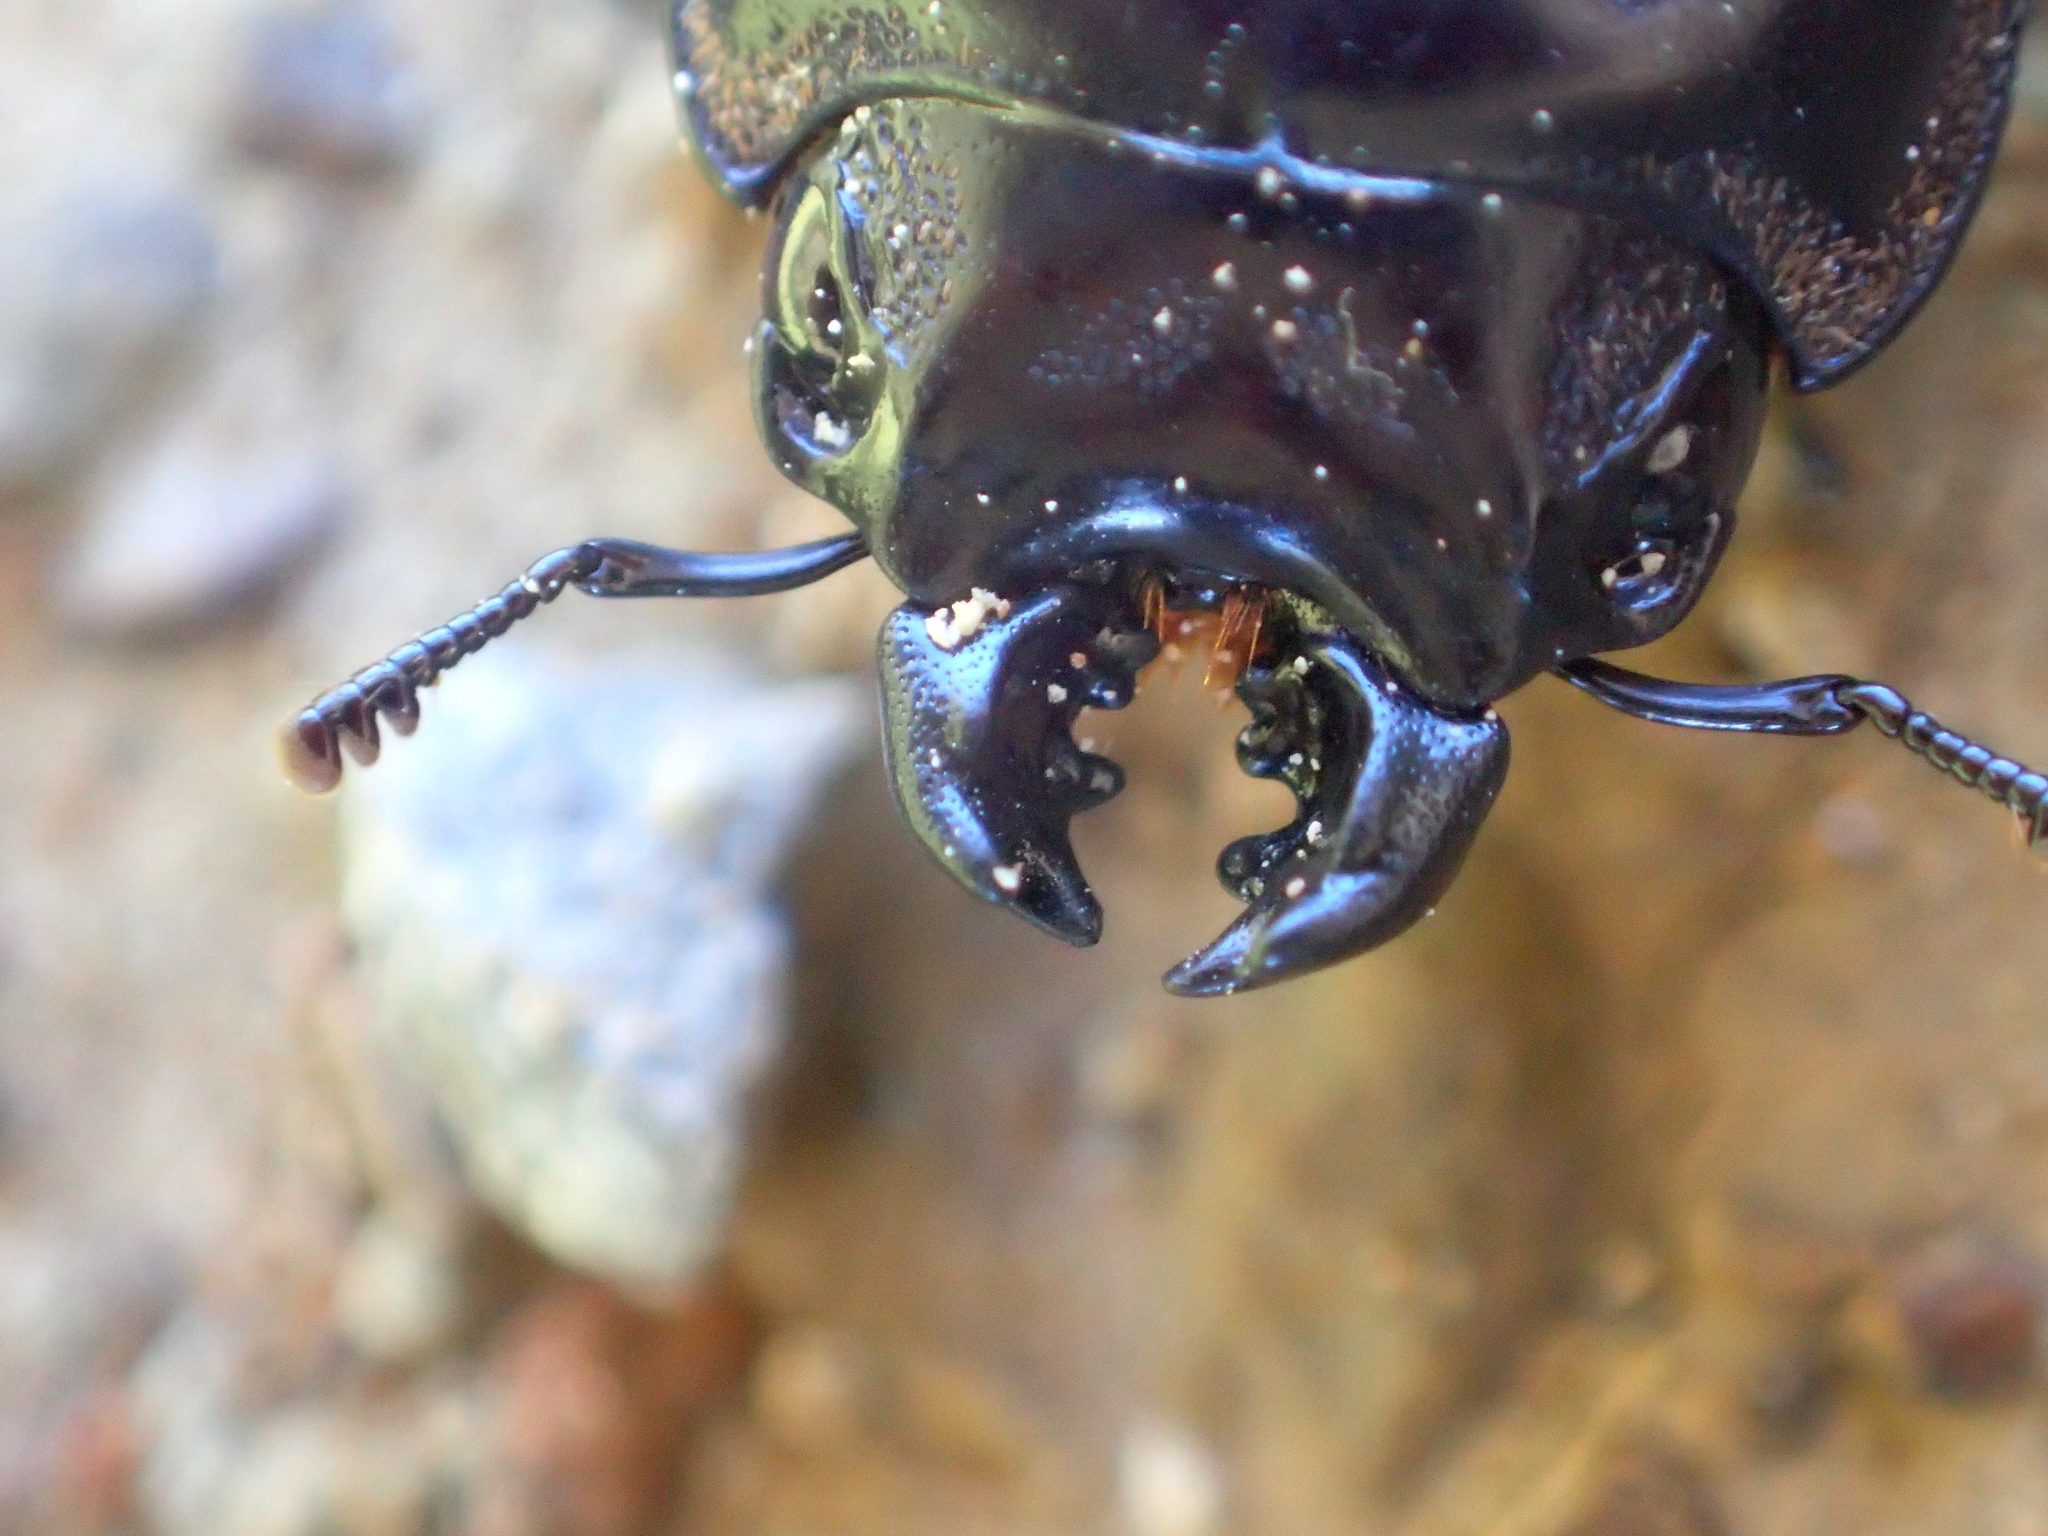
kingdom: Animalia
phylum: Arthropoda
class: Insecta
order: Coleoptera
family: Lucanidae
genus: Paralissotes
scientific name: Paralissotes reticulatus
